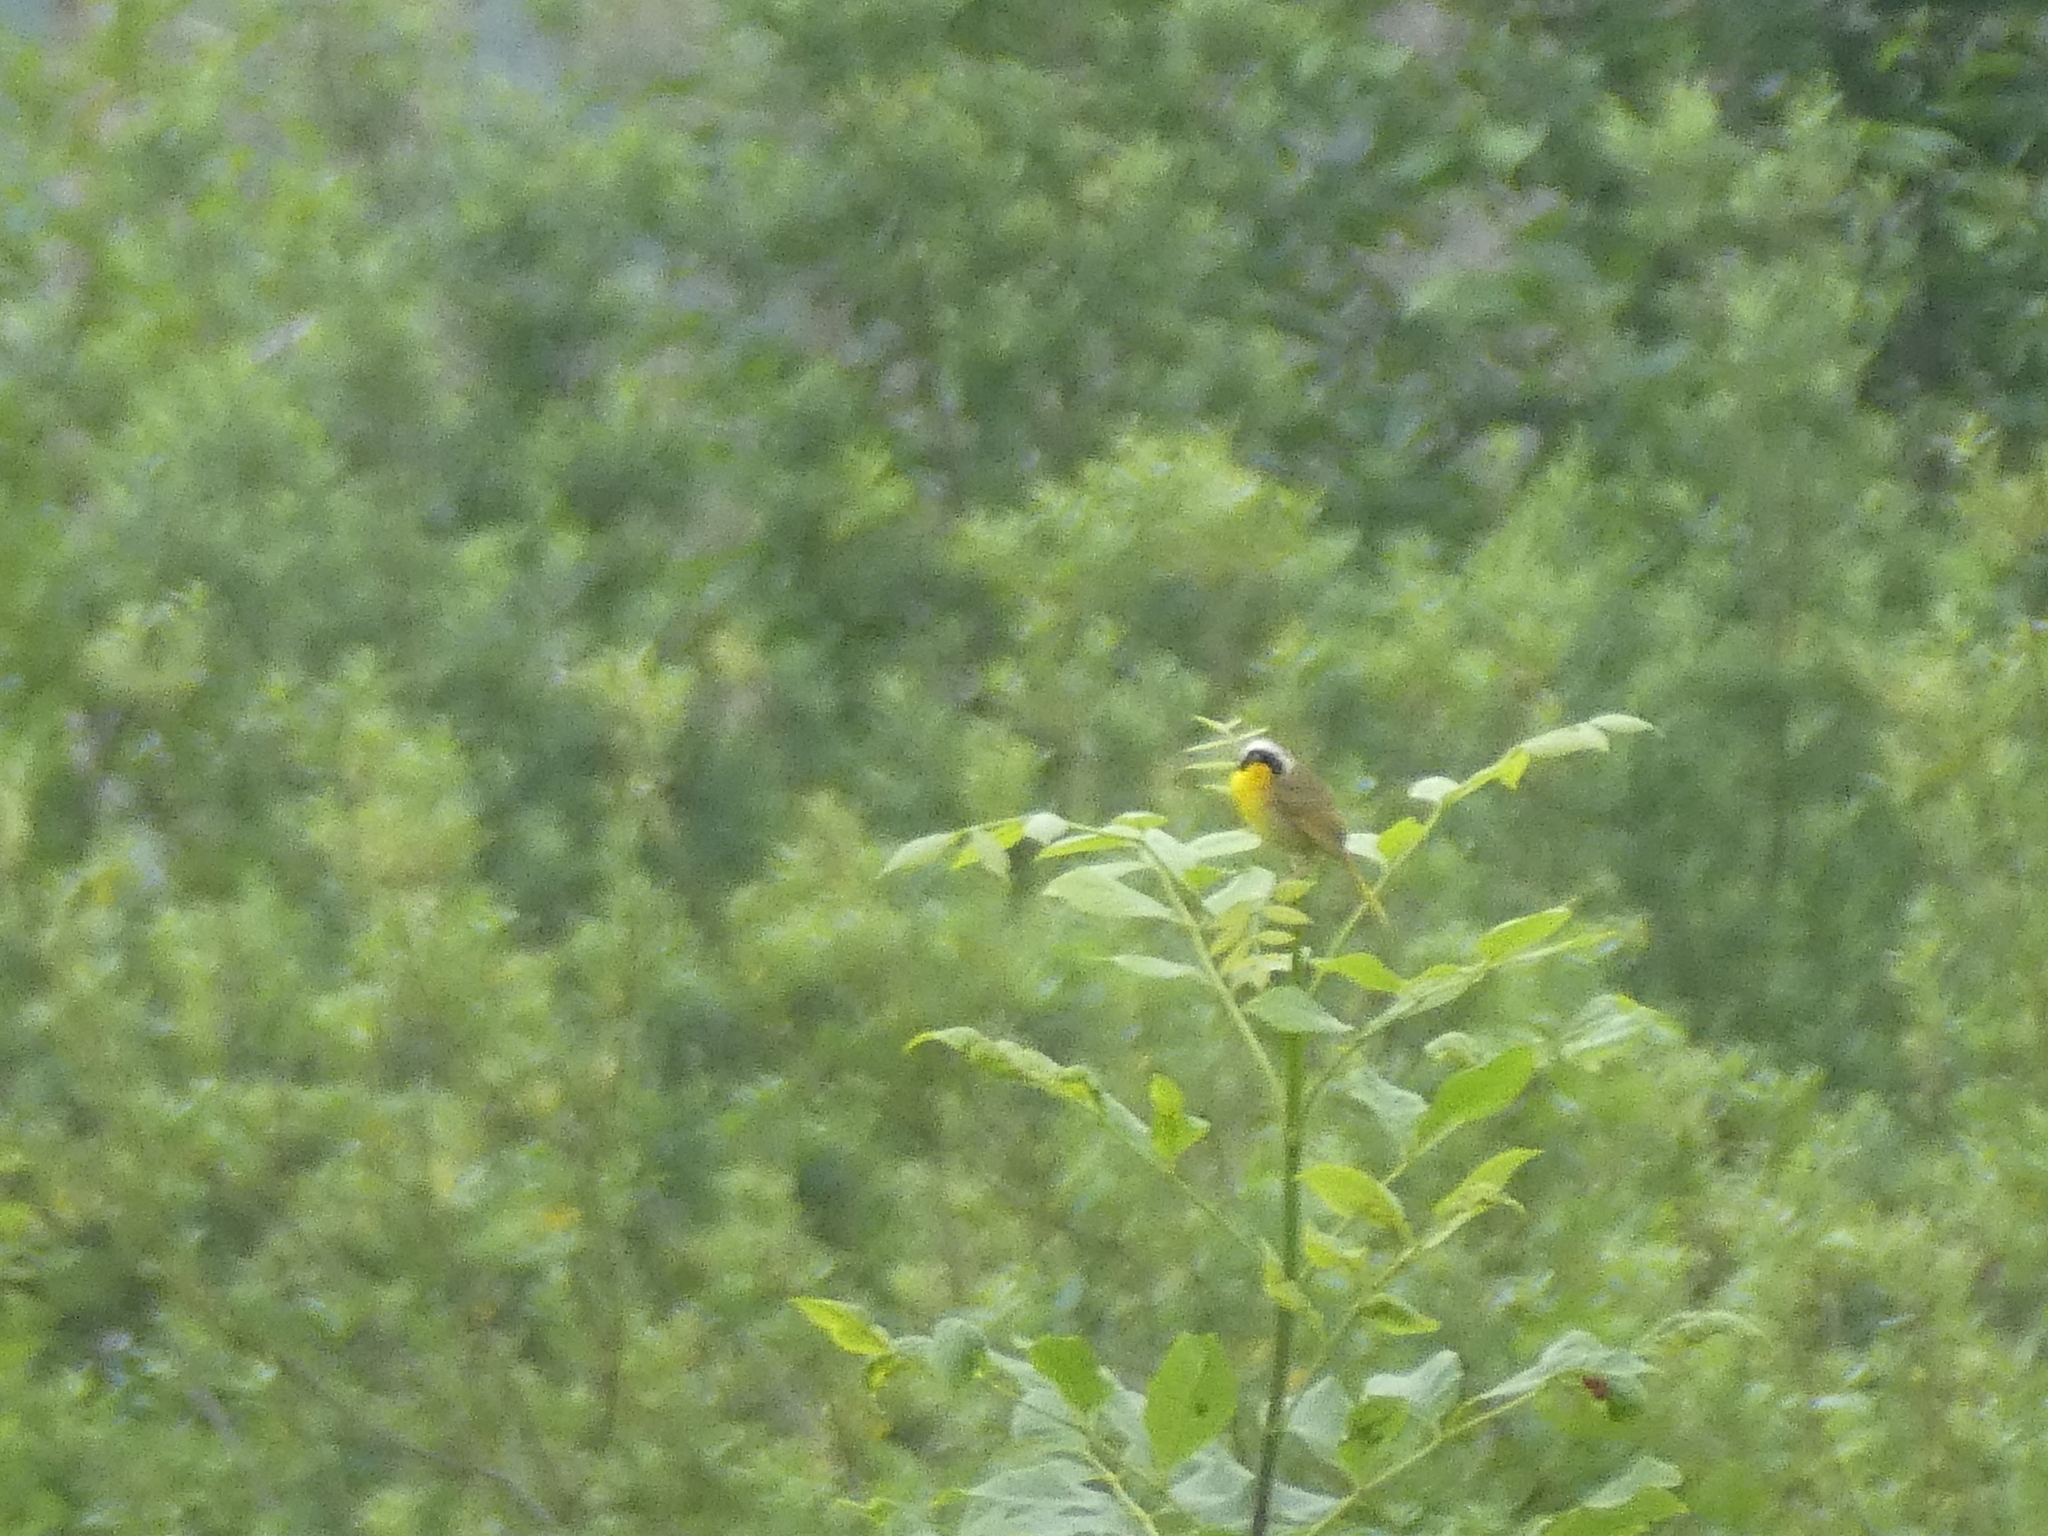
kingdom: Animalia
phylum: Chordata
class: Aves
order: Passeriformes
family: Parulidae
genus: Geothlypis
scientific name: Geothlypis trichas
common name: Common yellowthroat
